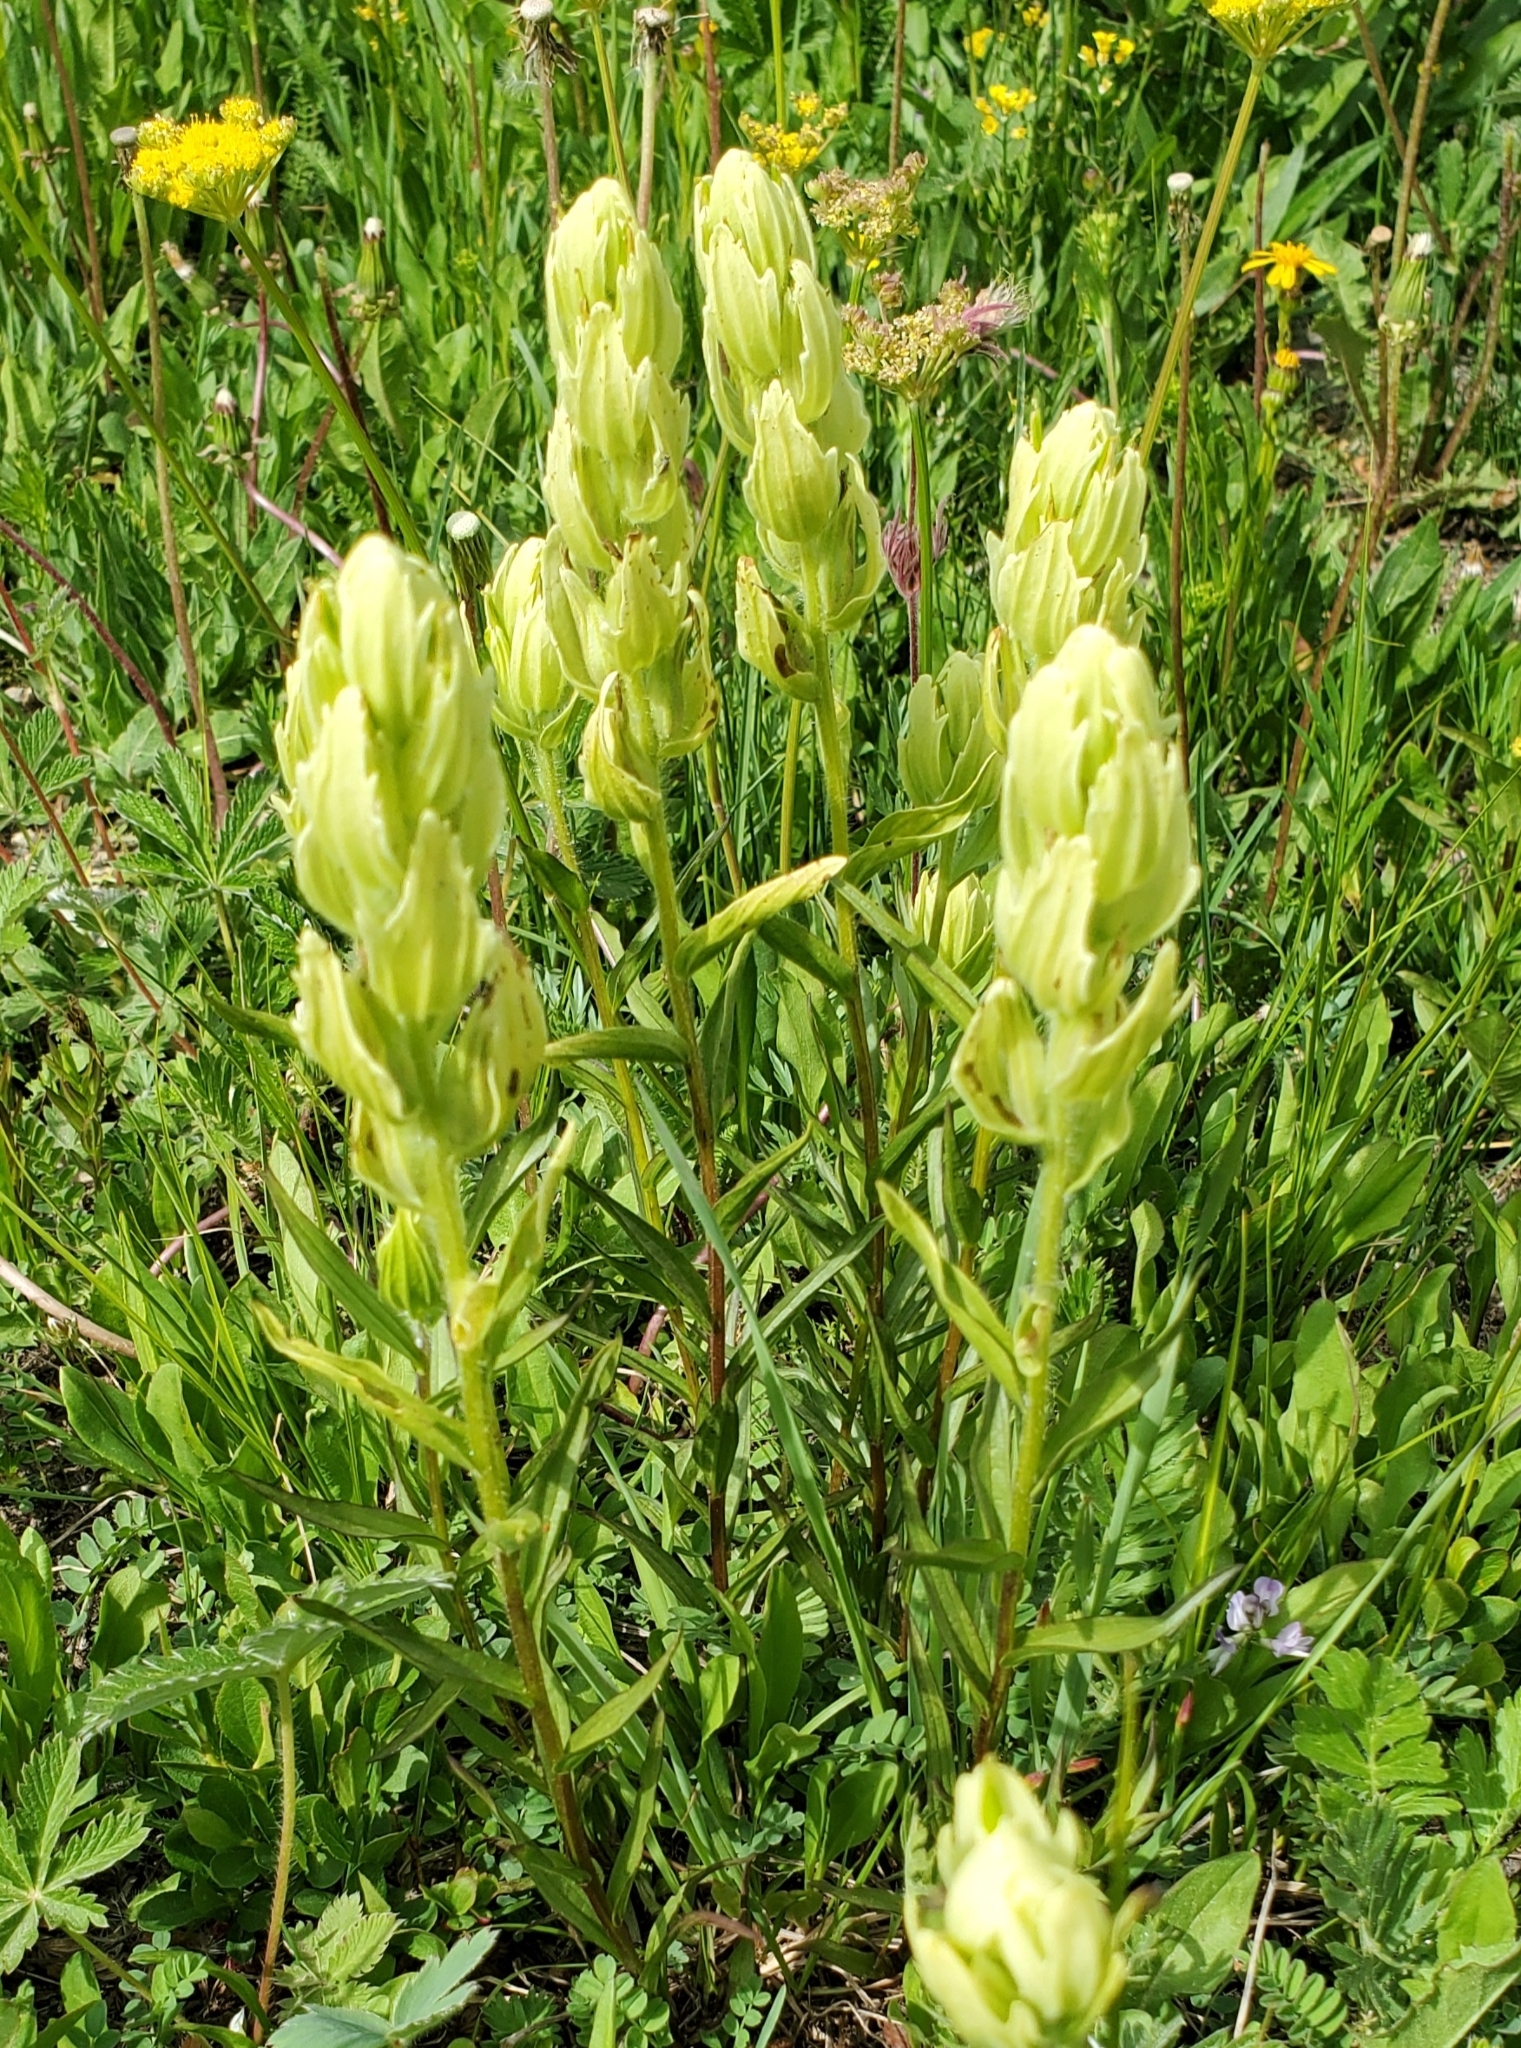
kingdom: Plantae
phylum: Tracheophyta
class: Magnoliopsida
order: Lamiales
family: Orobanchaceae
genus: Castilleja
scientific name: Castilleja occidentalis
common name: Western paintbrush
